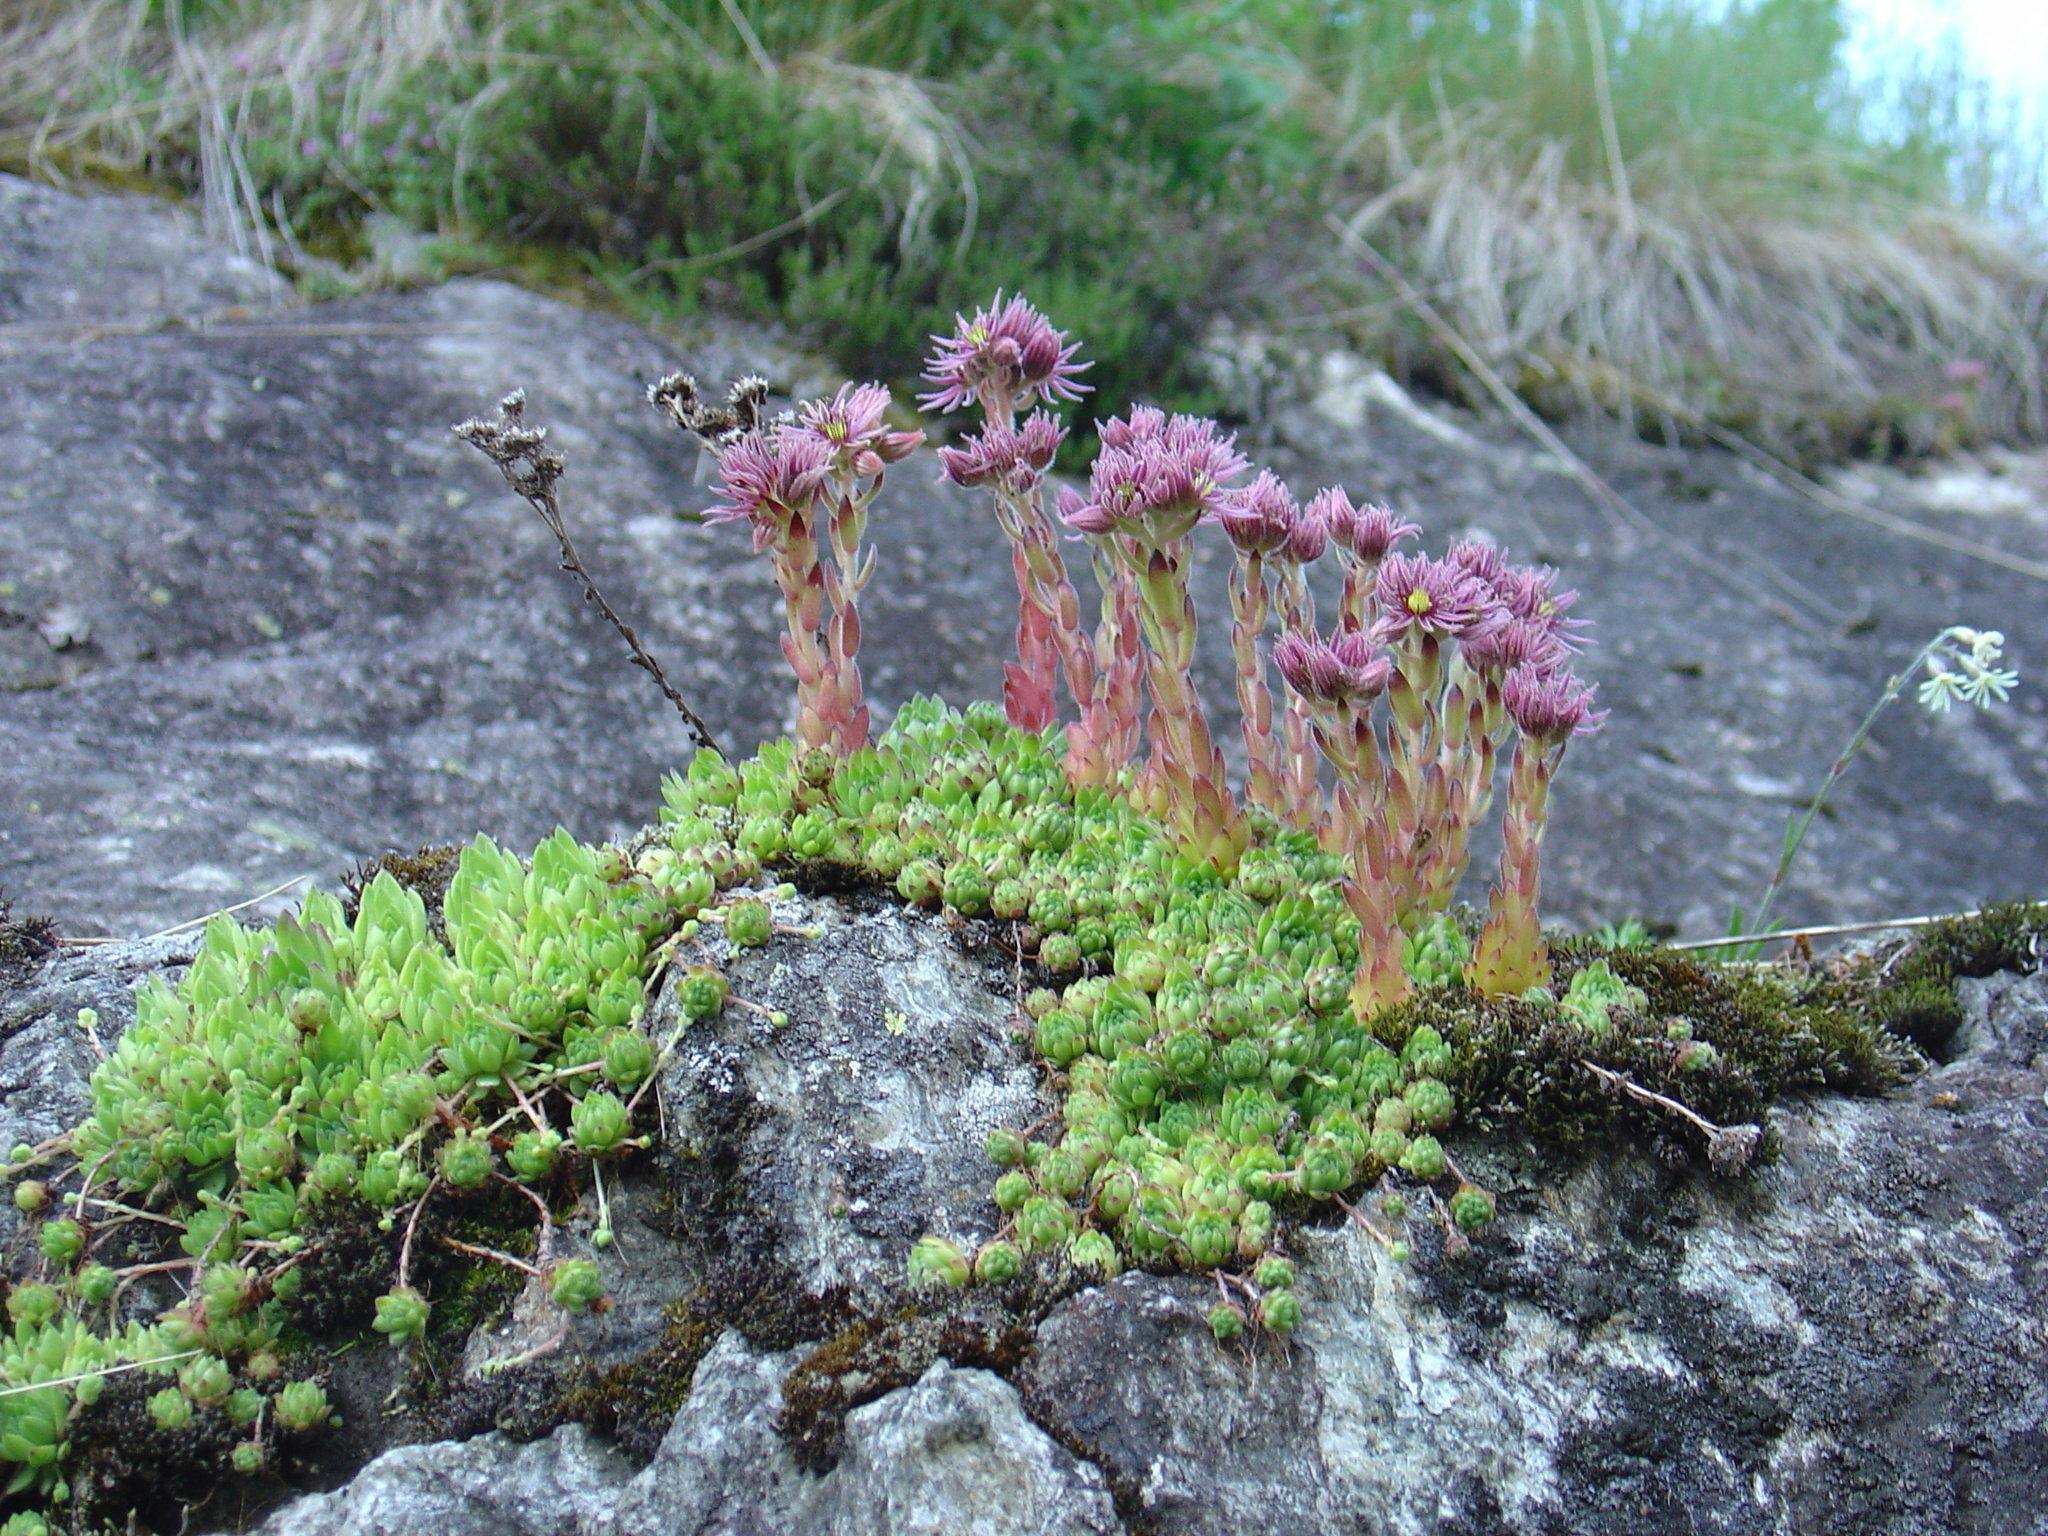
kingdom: Plantae
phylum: Tracheophyta
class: Magnoliopsida
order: Saxifragales
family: Crassulaceae
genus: Sempervivum
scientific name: Sempervivum montanum
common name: Mountain house-leek
